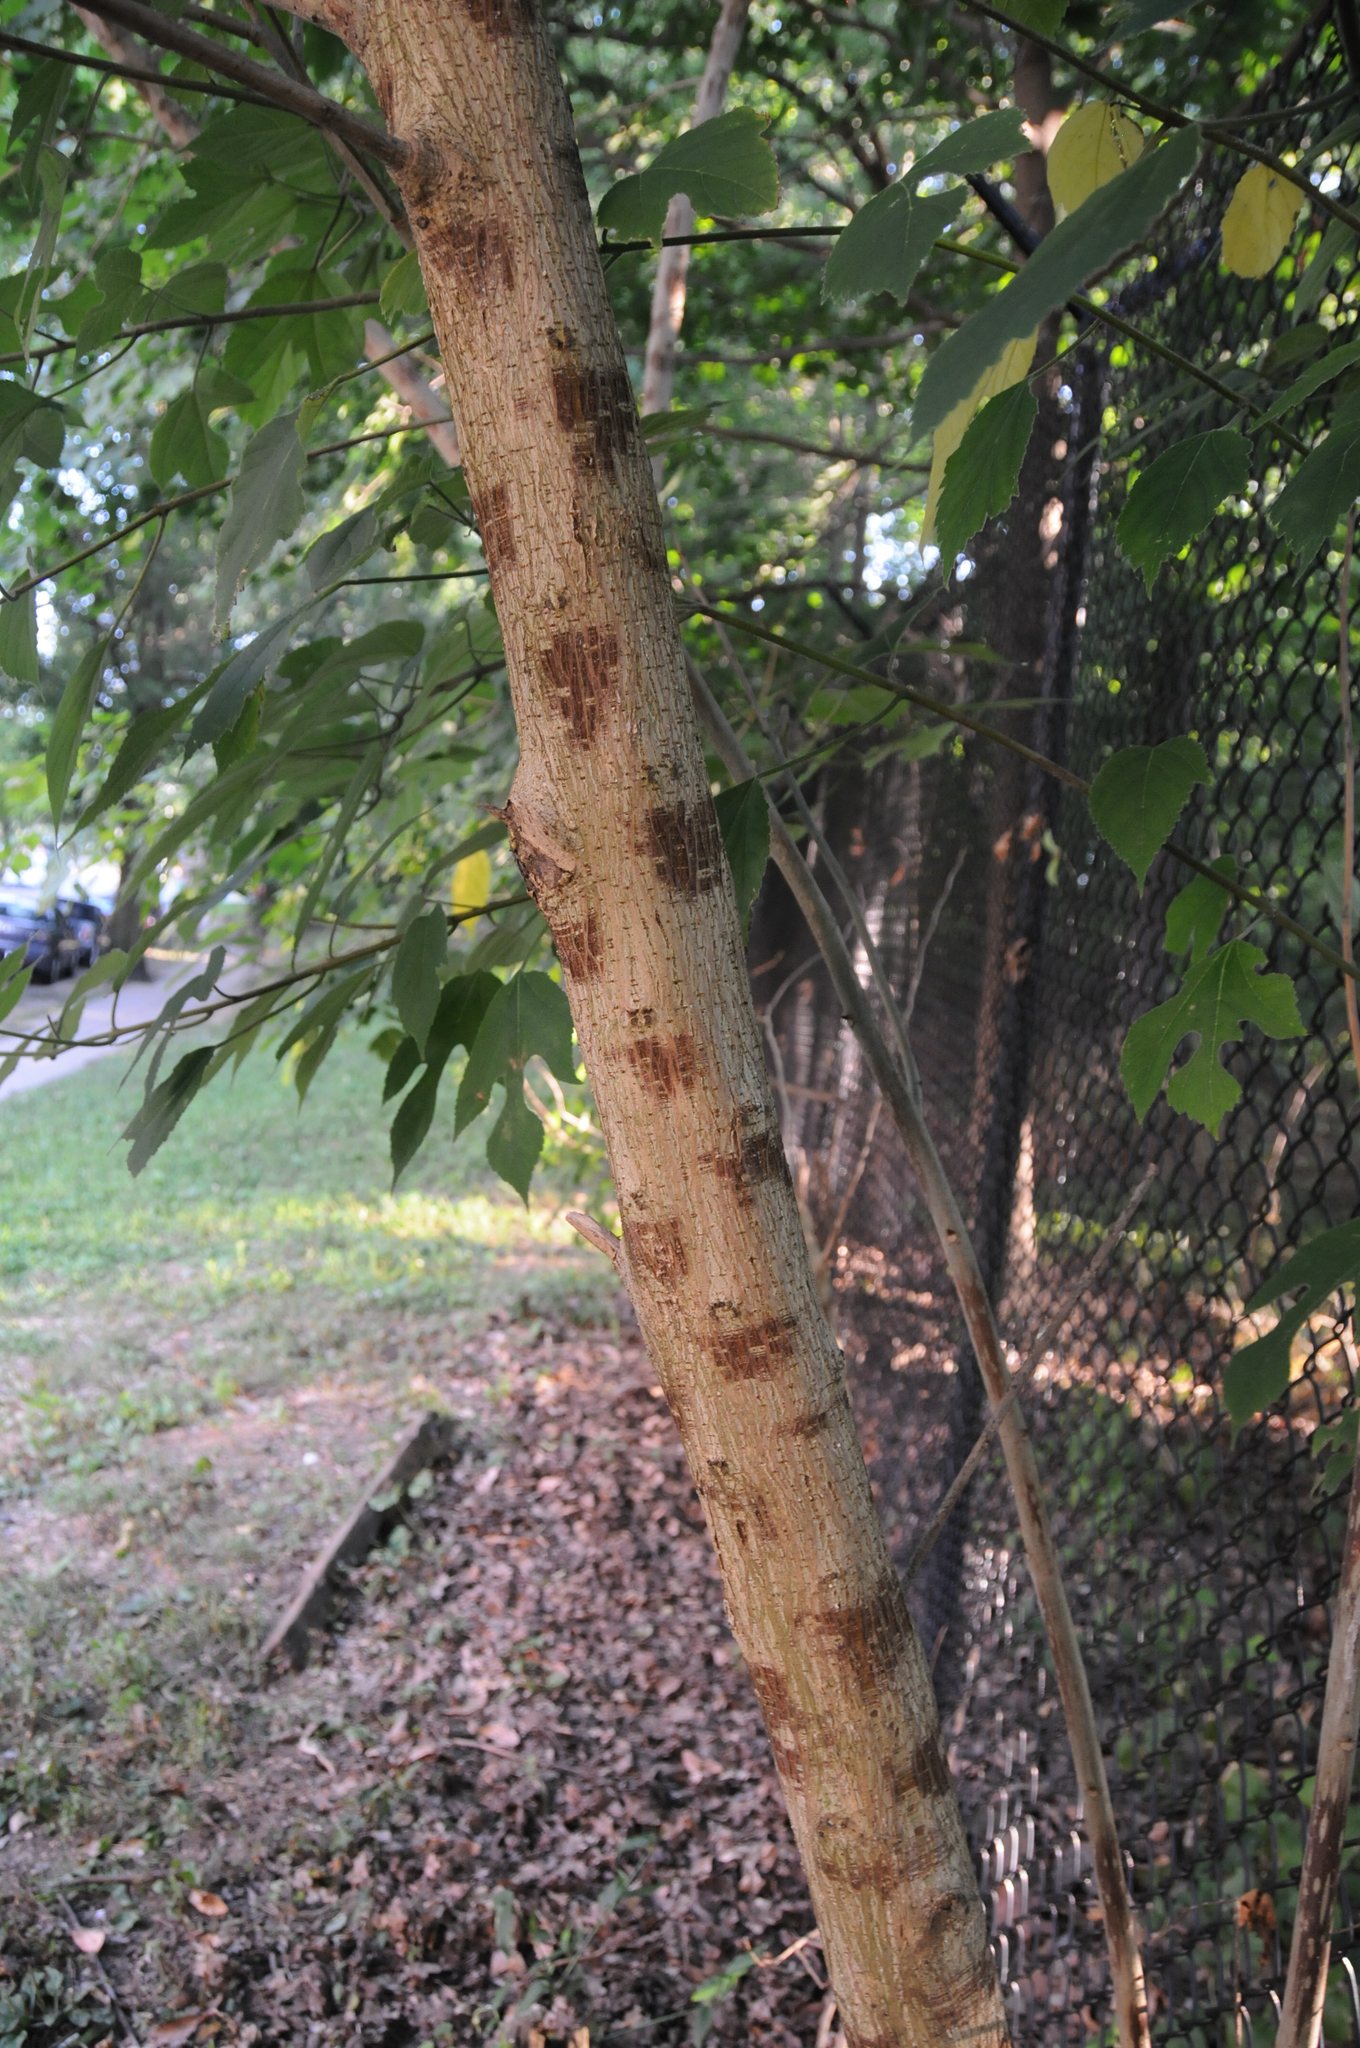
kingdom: Plantae
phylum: Tracheophyta
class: Magnoliopsida
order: Rosales
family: Moraceae
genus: Broussonetia
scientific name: Broussonetia papyrifera
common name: Paper mulberry
